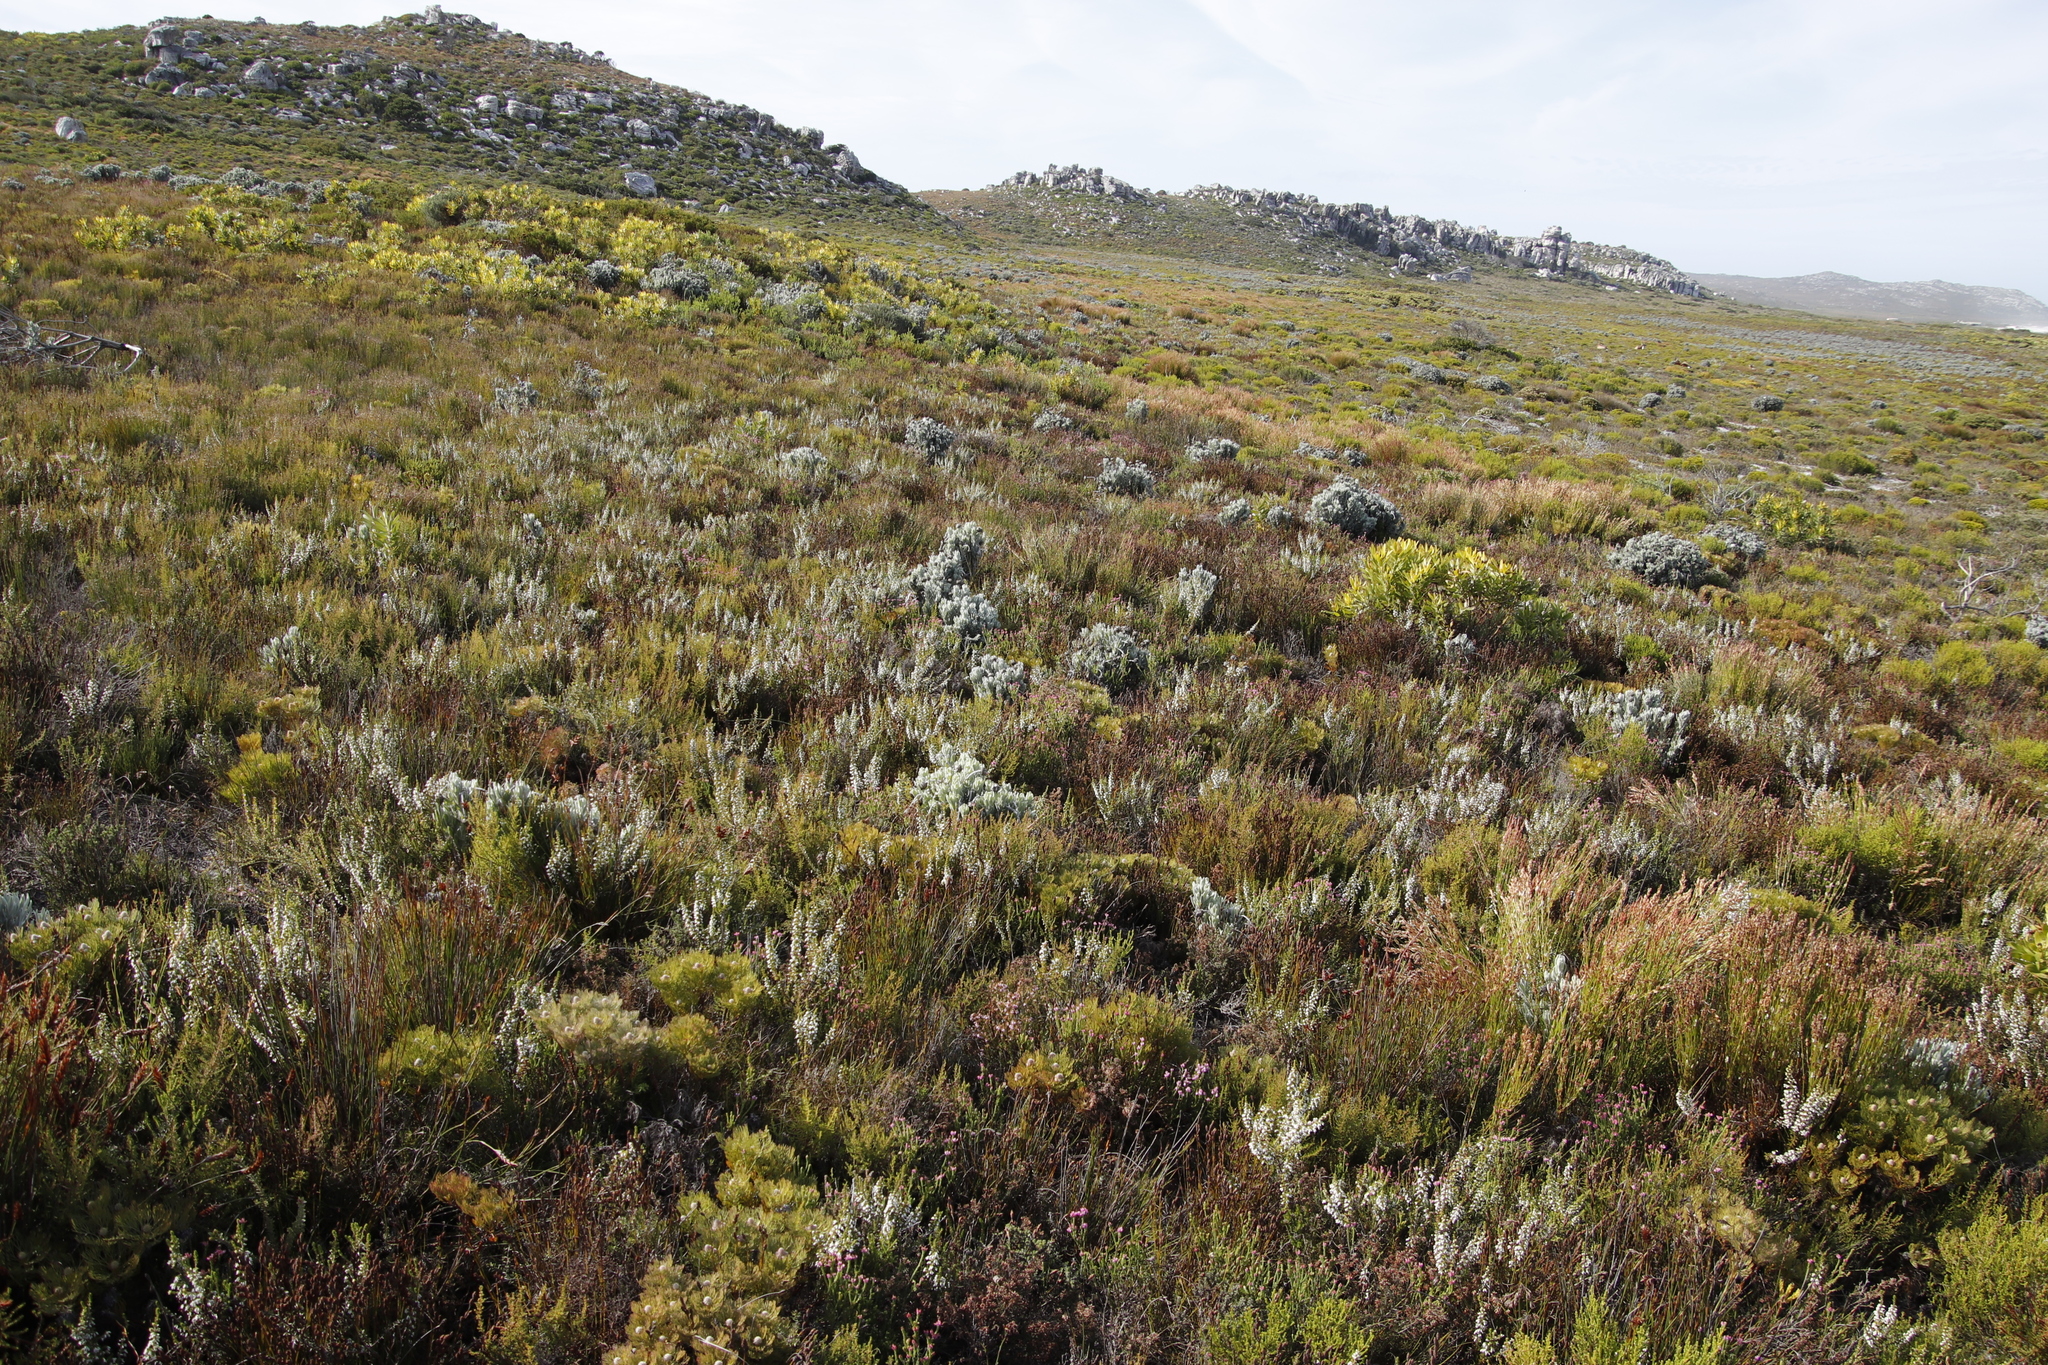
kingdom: Plantae
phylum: Tracheophyta
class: Magnoliopsida
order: Asterales
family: Asteraceae
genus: Syncarpha
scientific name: Syncarpha vestita
